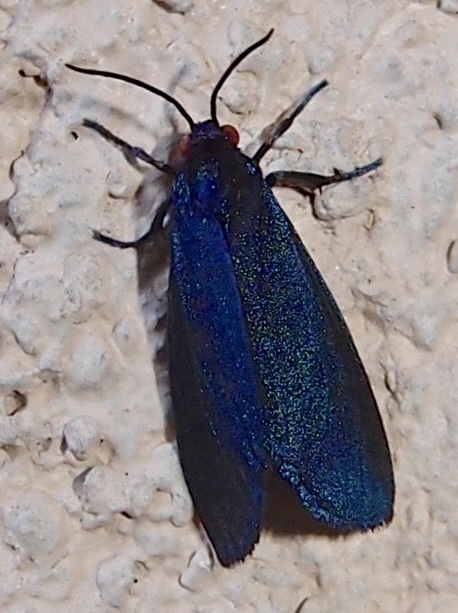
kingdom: Animalia
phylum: Arthropoda
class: Insecta
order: Lepidoptera
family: Erebidae
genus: Stenucha
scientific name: Stenucha dolens
